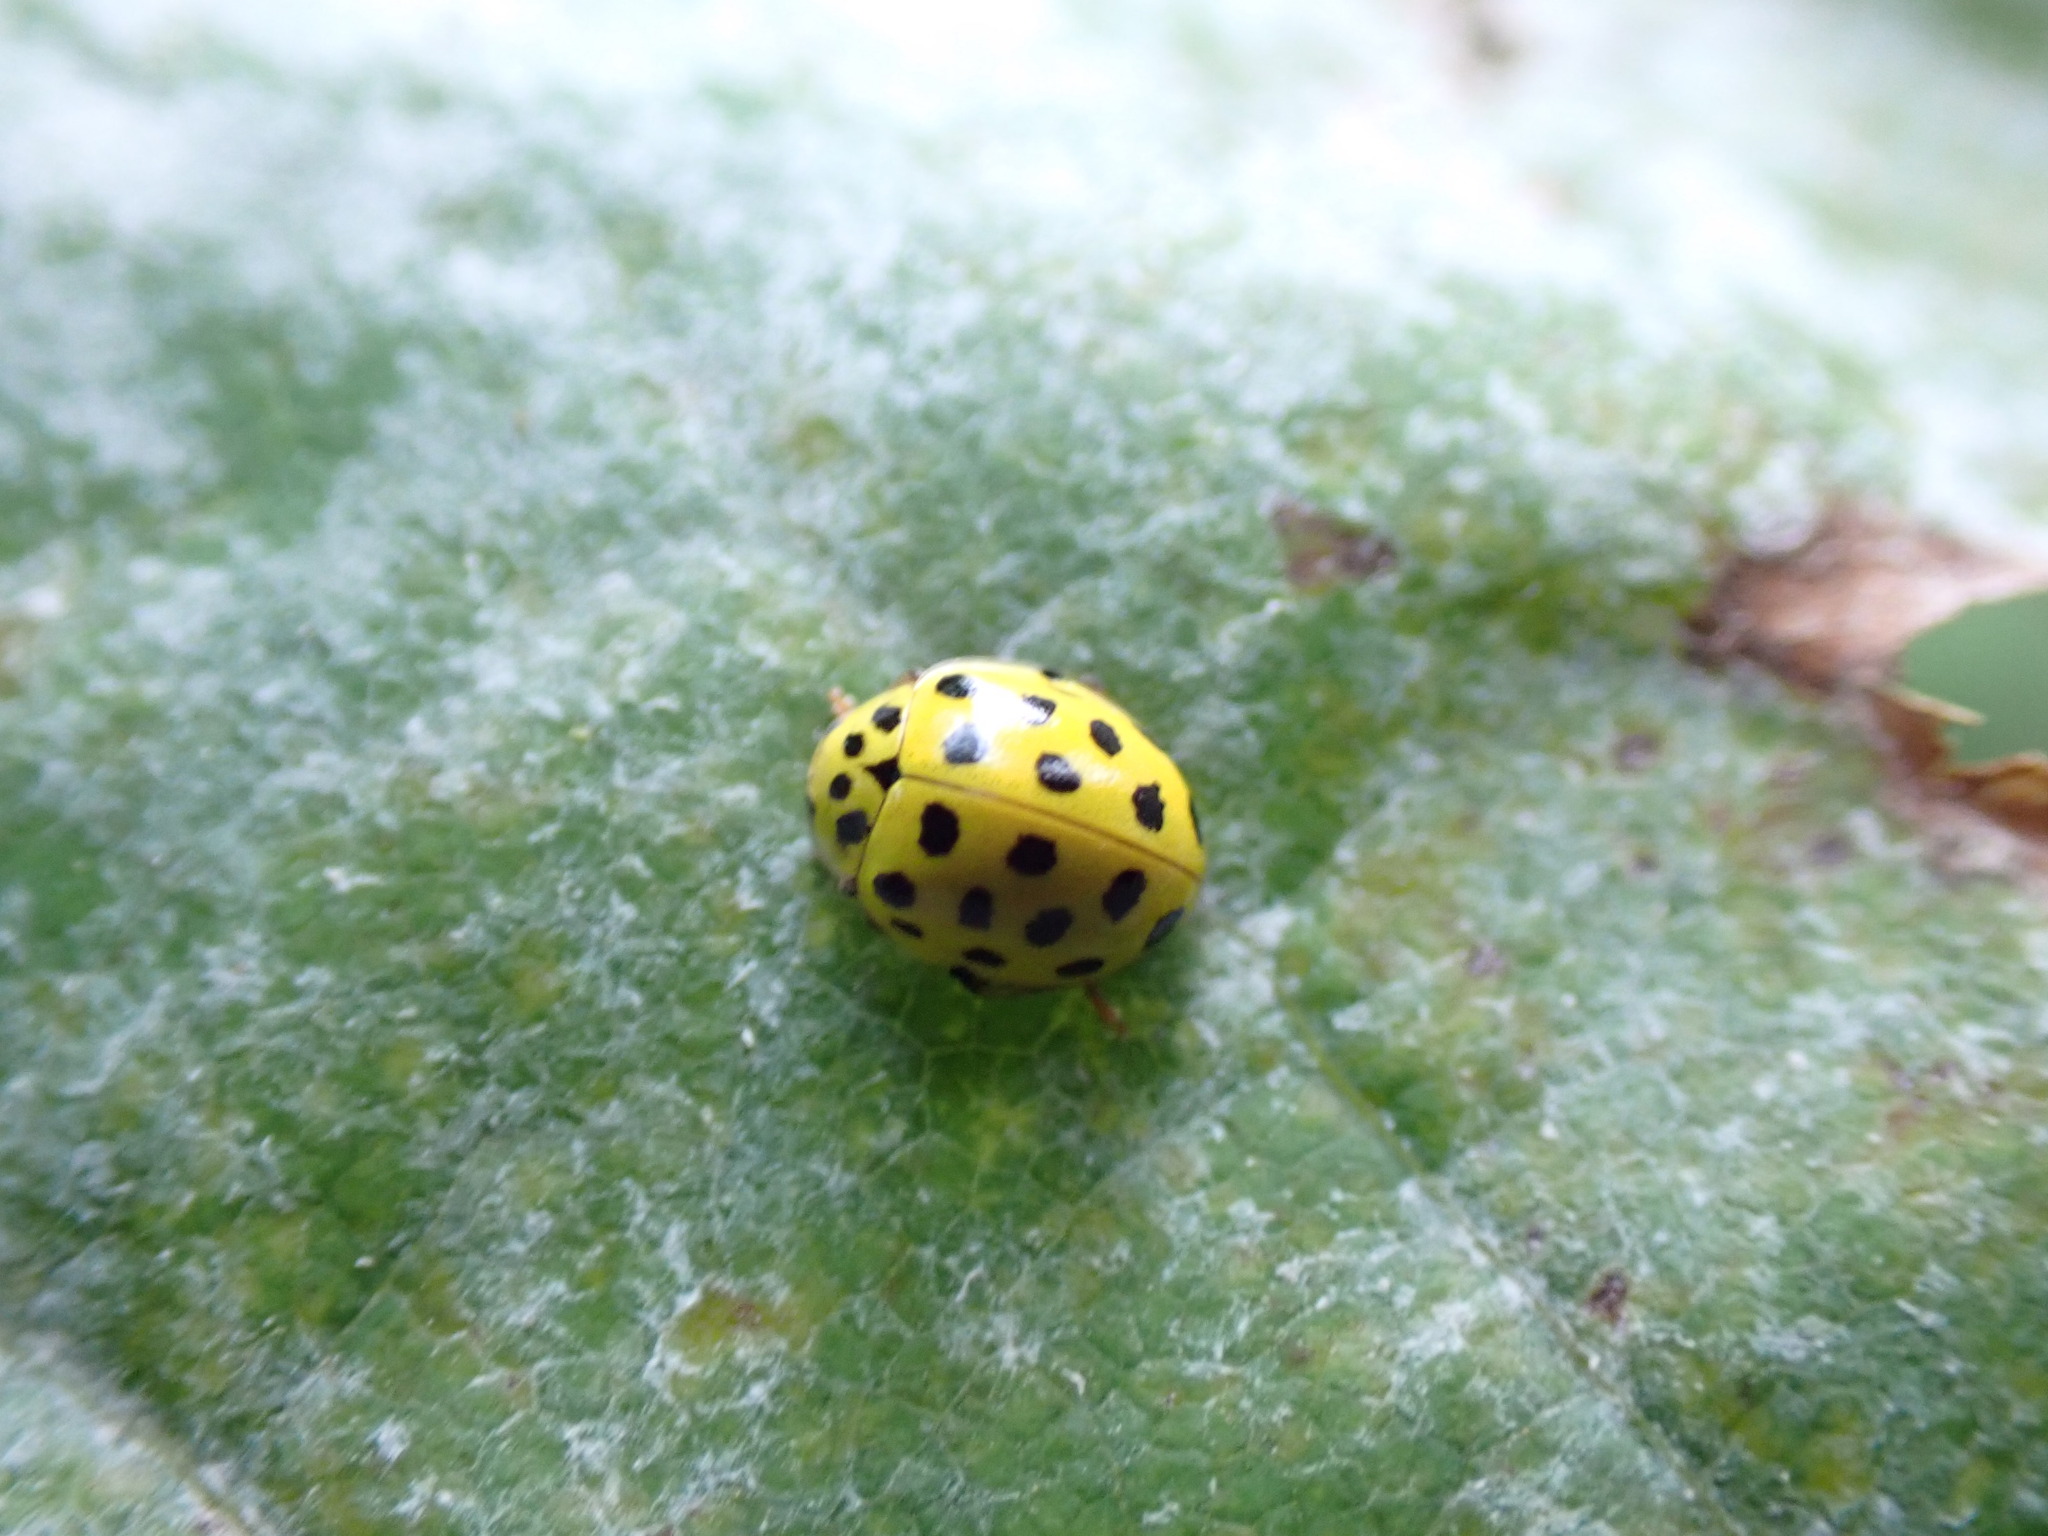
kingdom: Animalia
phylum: Arthropoda
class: Insecta
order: Coleoptera
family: Coccinellidae
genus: Psyllobora
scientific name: Psyllobora vigintiduopunctata
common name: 22-spot ladybird
